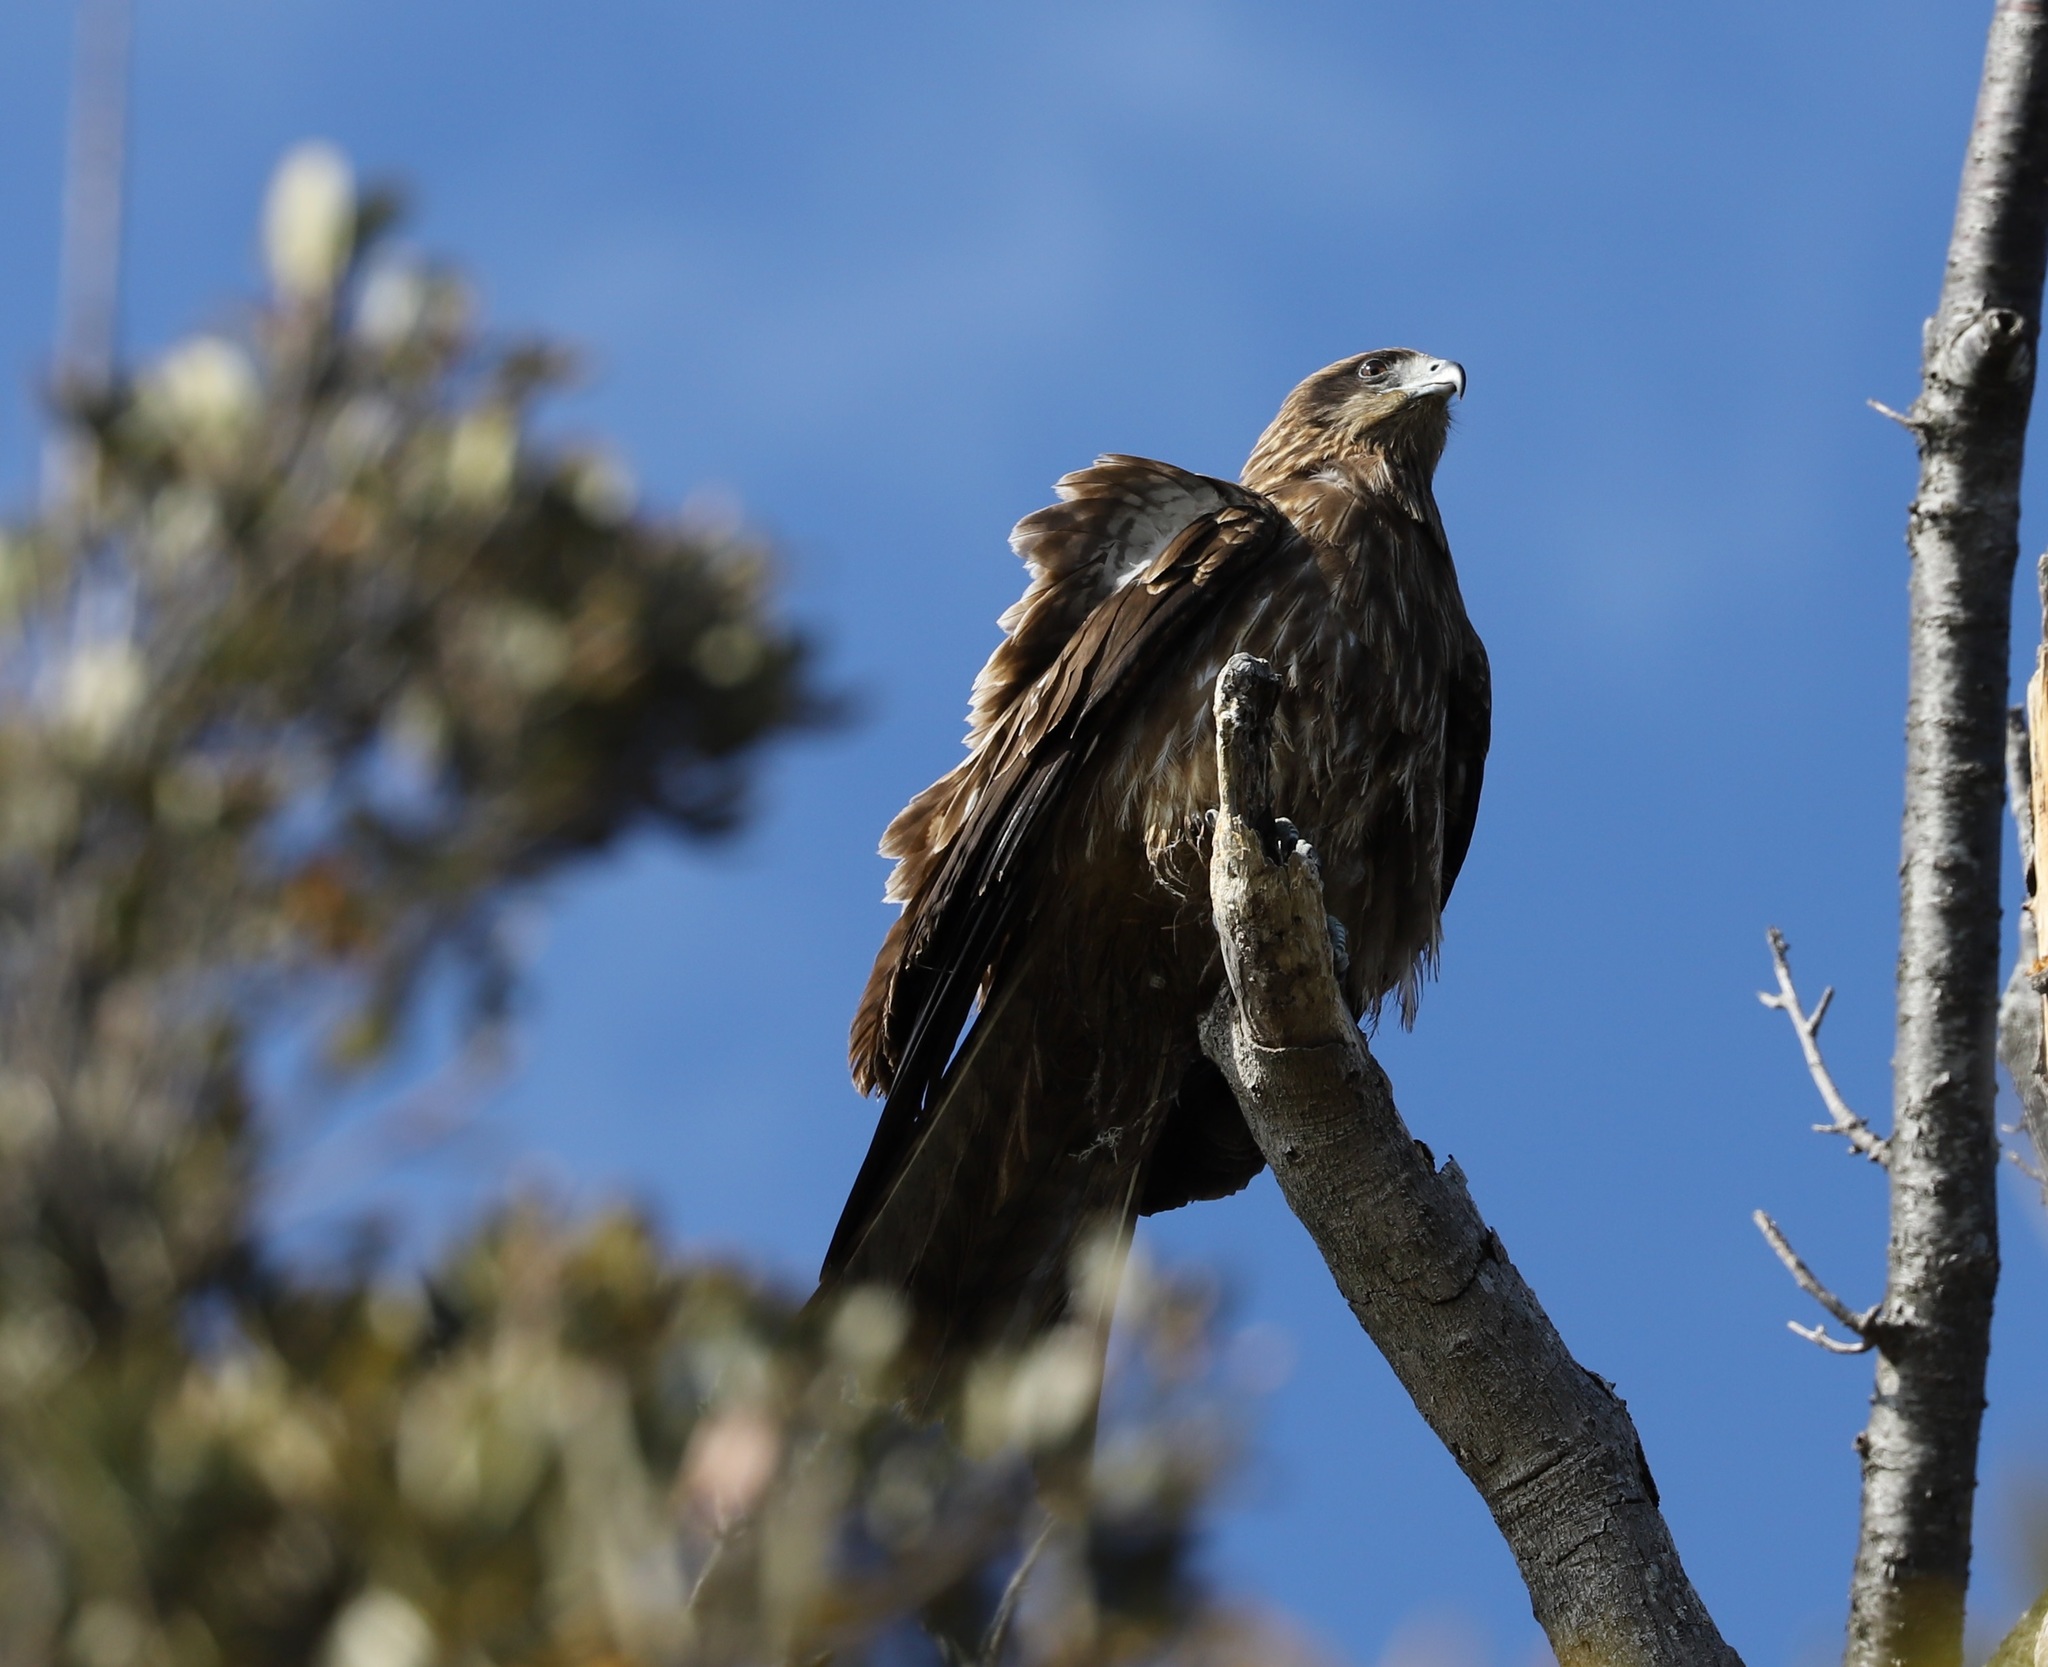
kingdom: Animalia
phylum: Chordata
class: Aves
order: Accipitriformes
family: Accipitridae
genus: Milvus
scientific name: Milvus migrans
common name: Black kite
